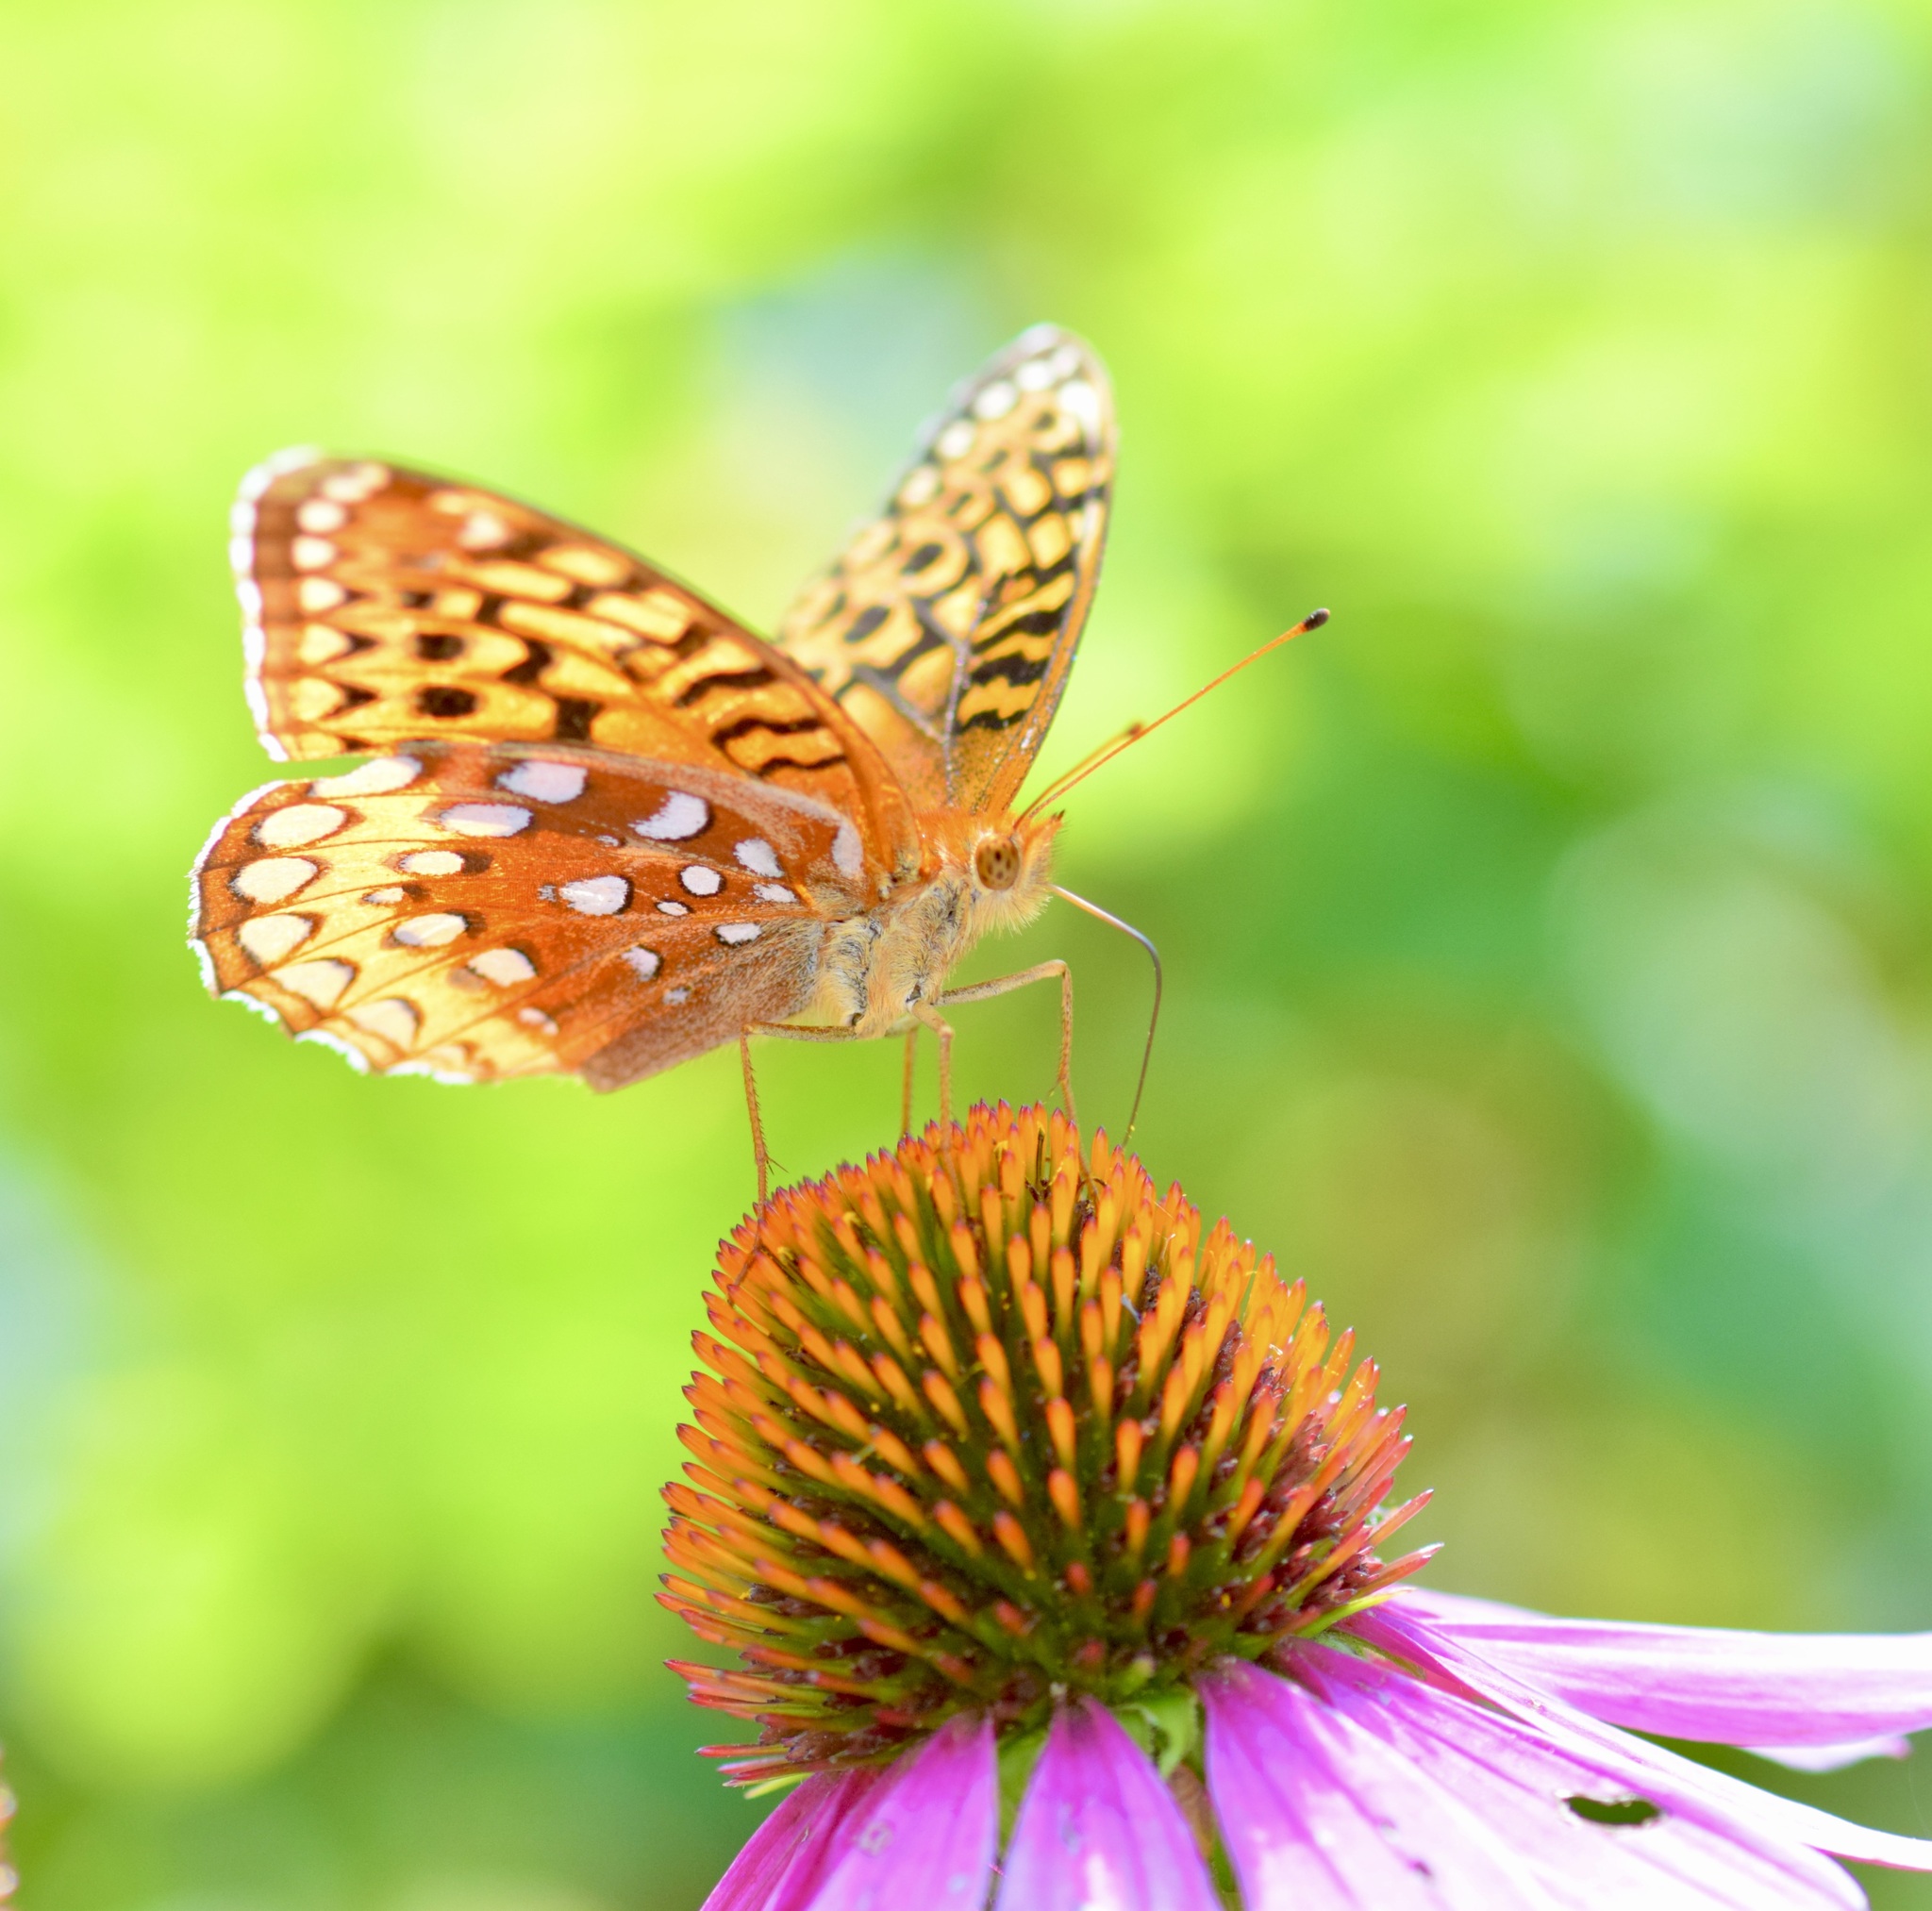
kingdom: Animalia
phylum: Arthropoda
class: Insecta
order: Lepidoptera
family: Nymphalidae
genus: Speyeria
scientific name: Speyeria cybele
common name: Great spangled fritillary
